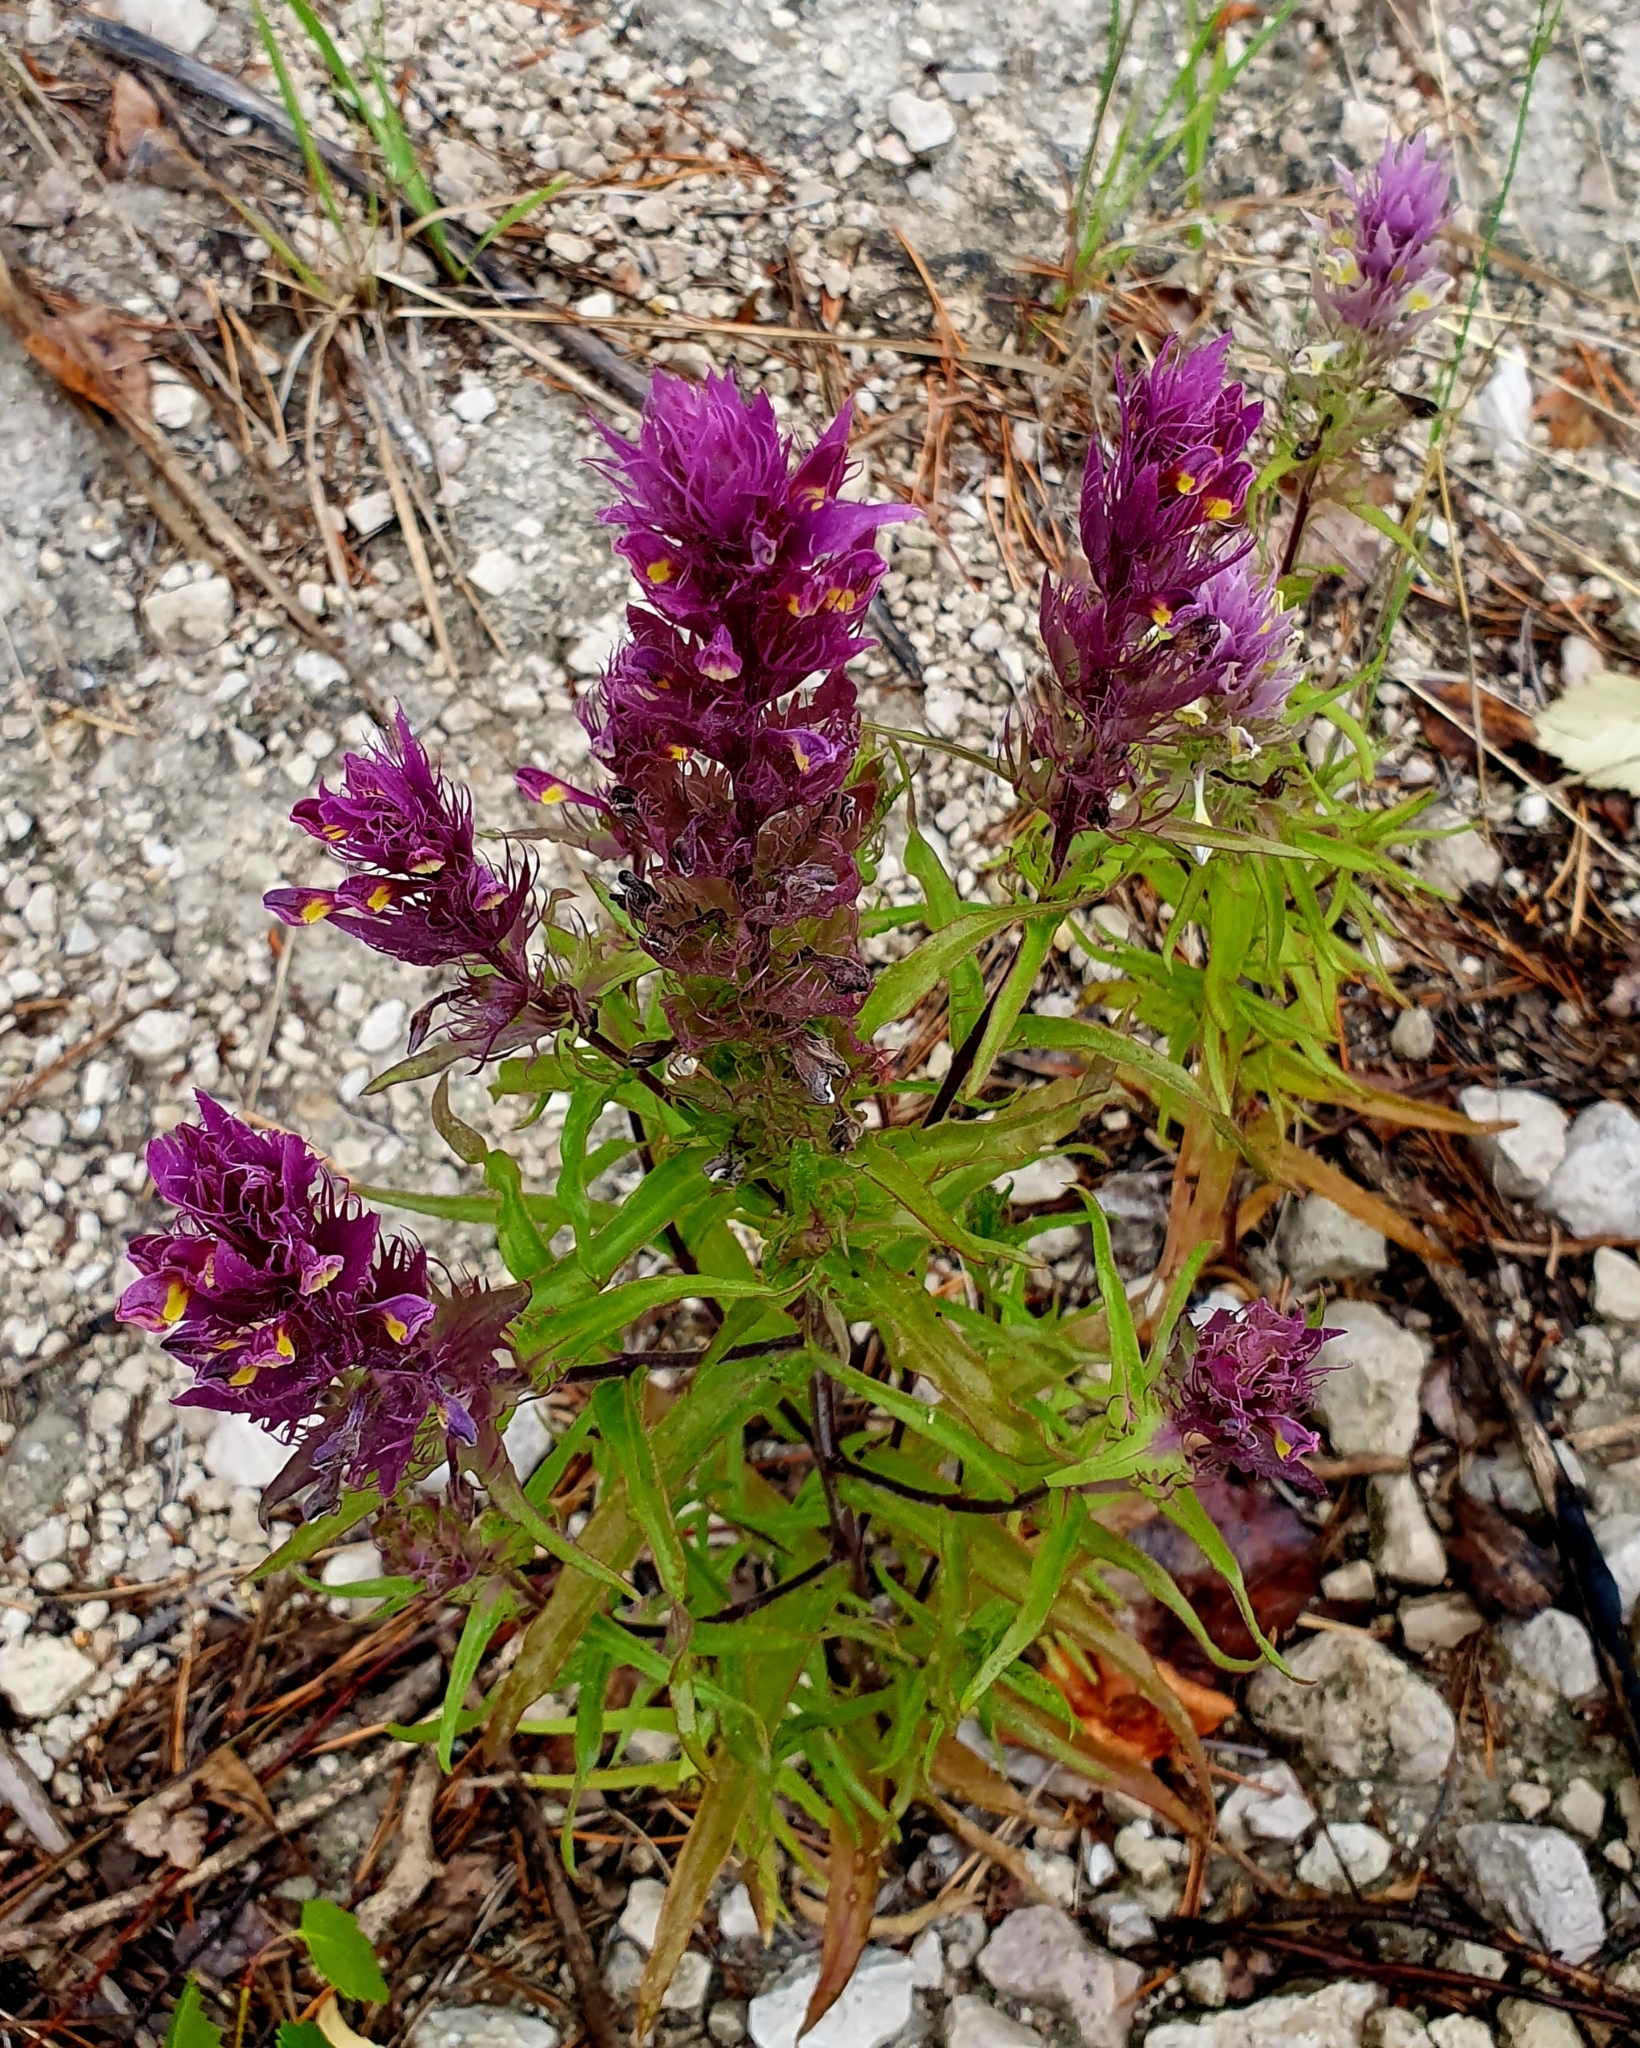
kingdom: Plantae
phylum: Tracheophyta
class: Magnoliopsida
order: Lamiales
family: Orobanchaceae
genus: Melampyrum
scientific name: Melampyrum arvense
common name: Field cow-wheat
